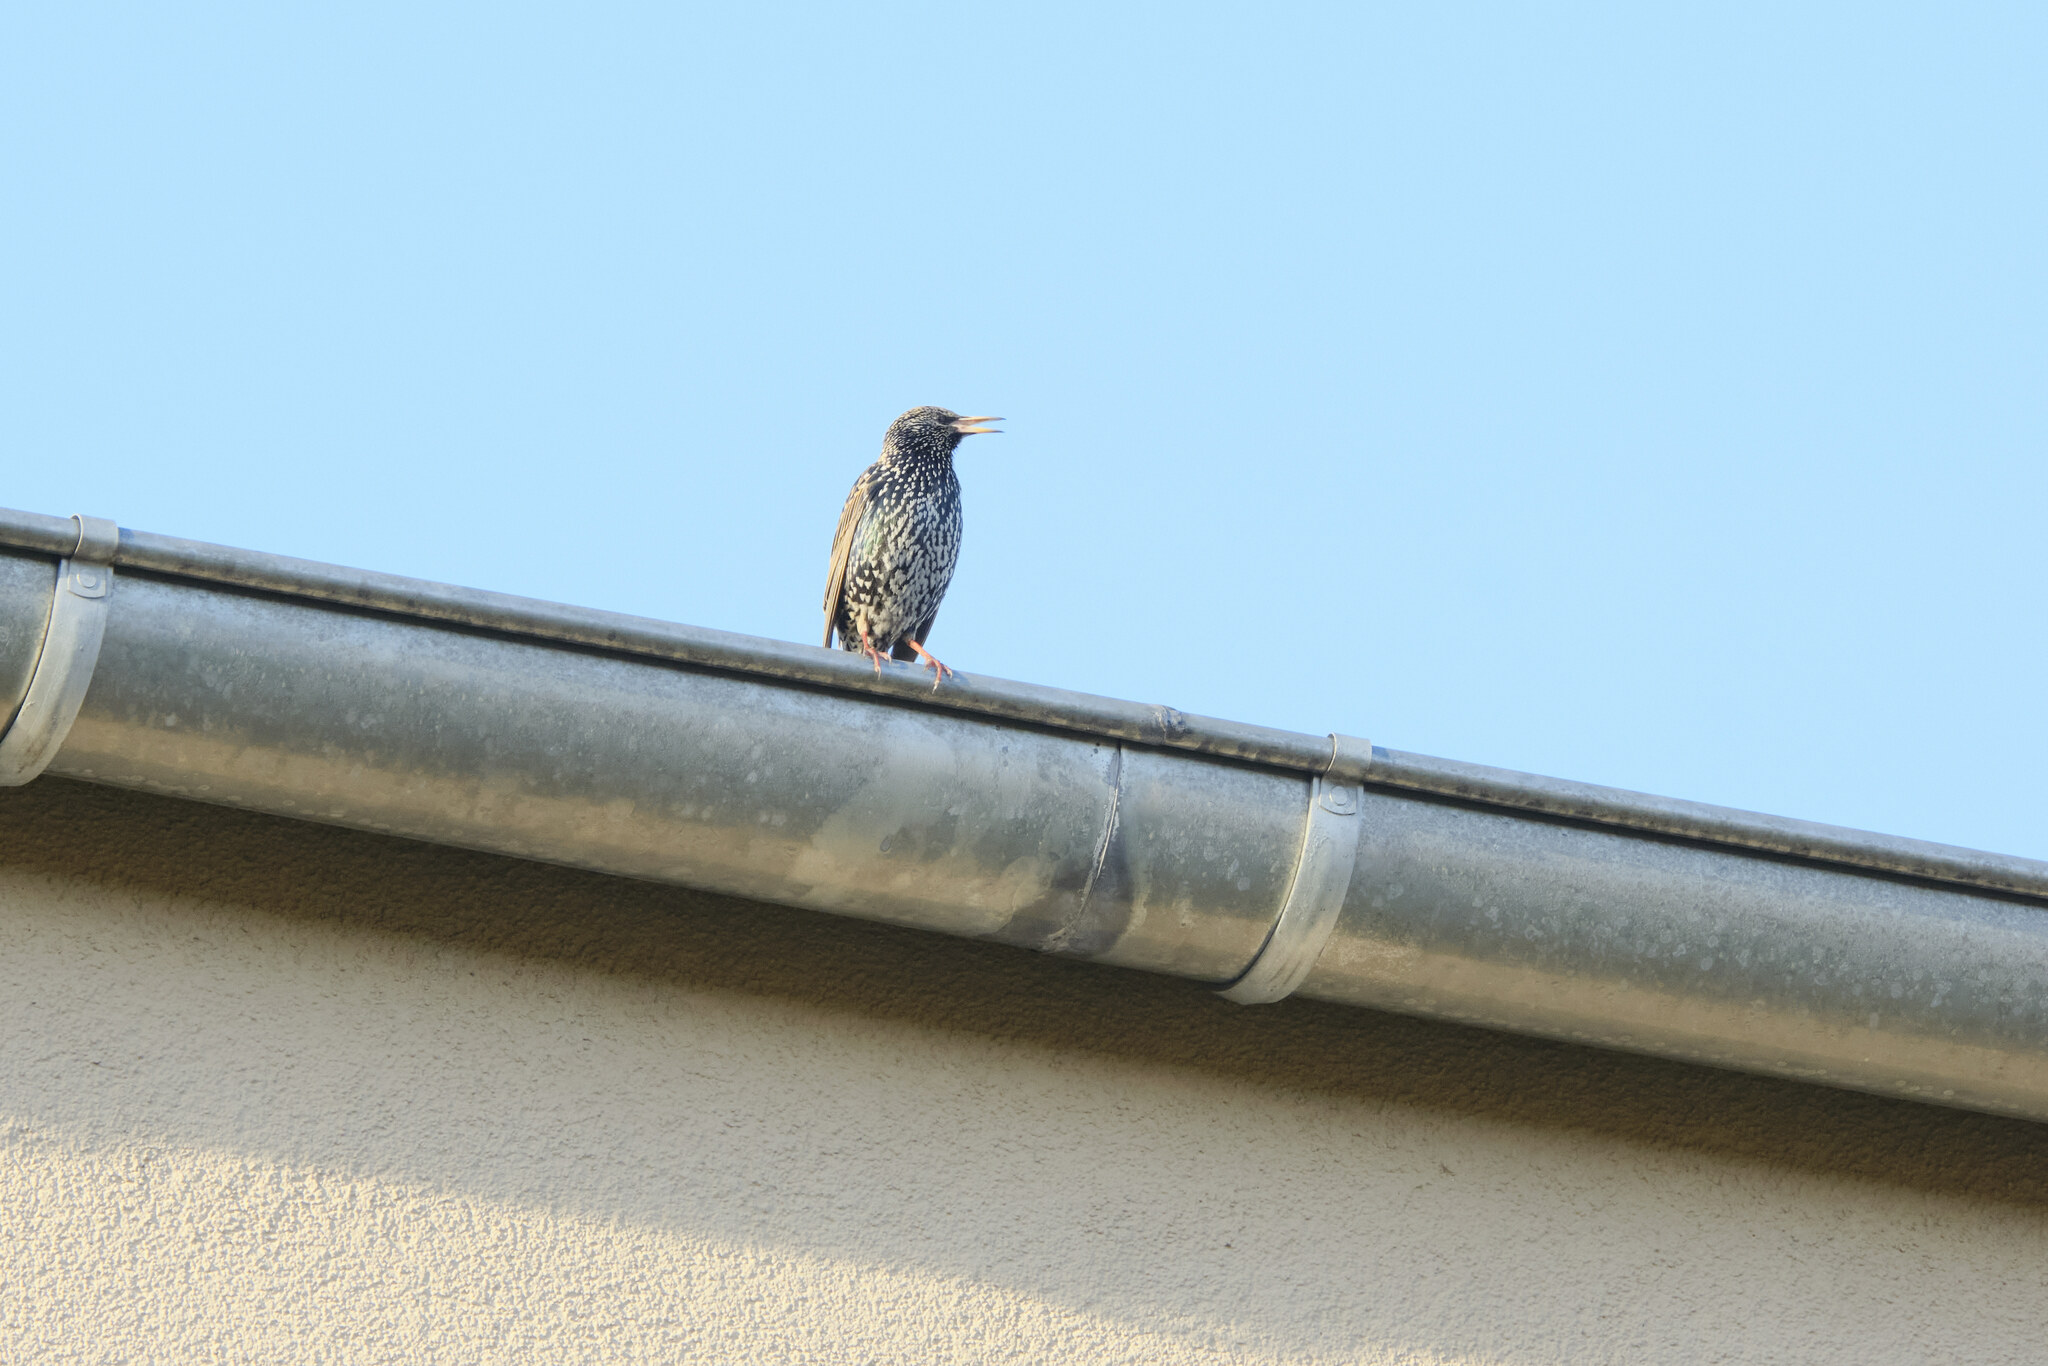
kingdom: Animalia
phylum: Chordata
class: Aves
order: Passeriformes
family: Sturnidae
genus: Sturnus
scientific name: Sturnus vulgaris
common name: Common starling
